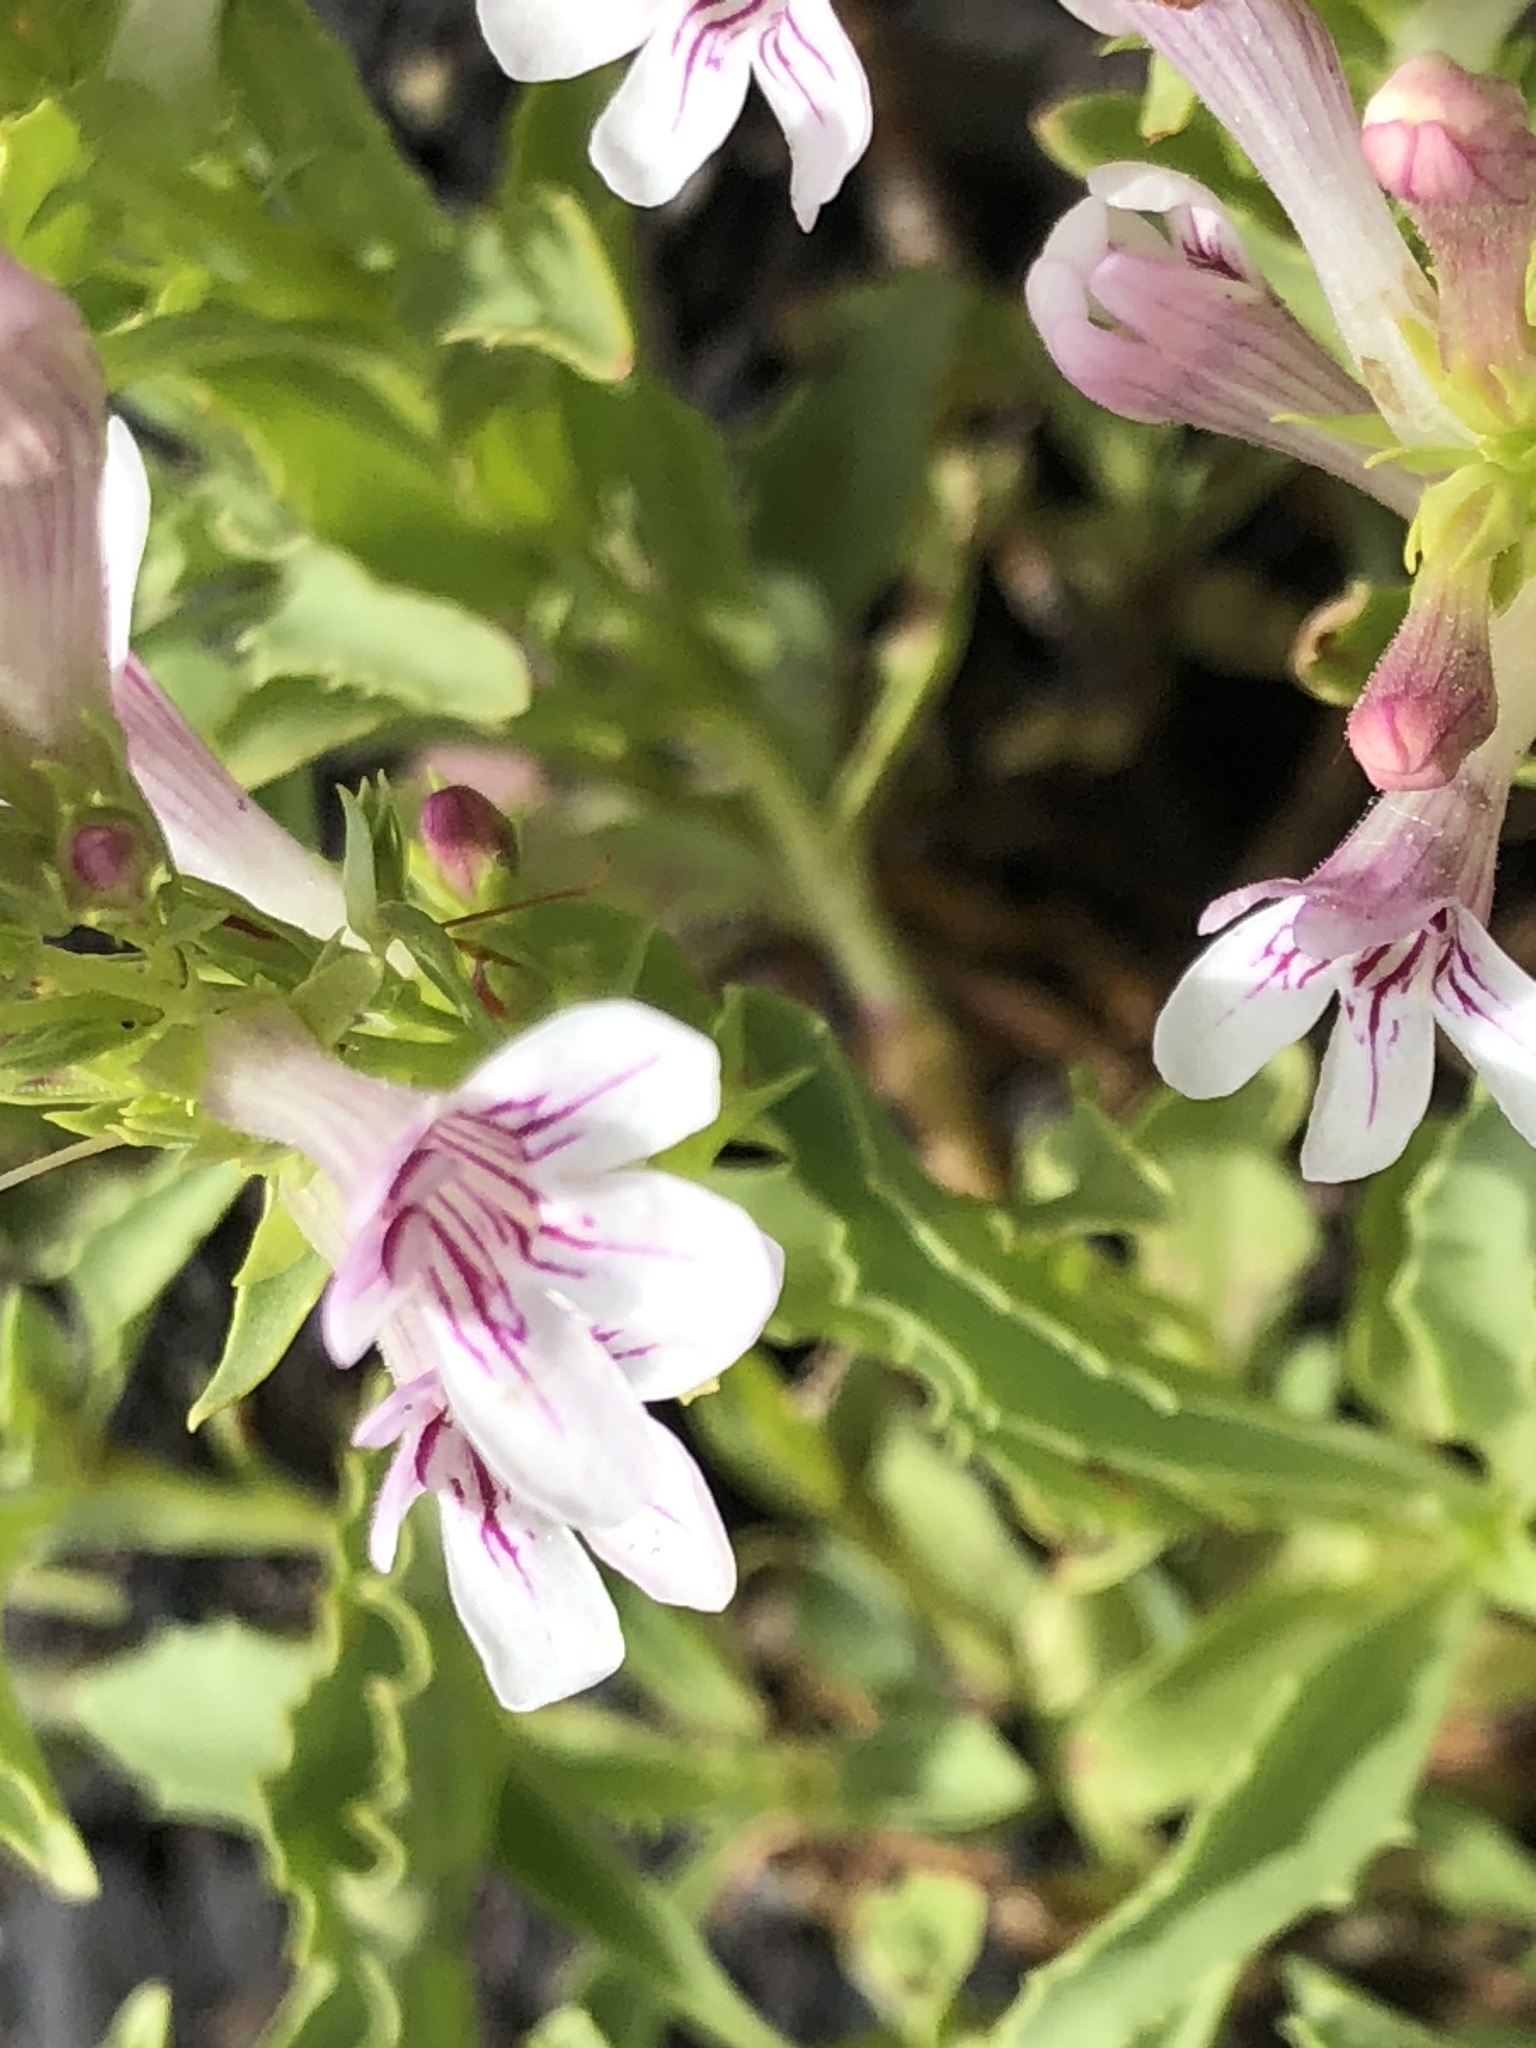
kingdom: Plantae
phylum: Tracheophyta
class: Magnoliopsida
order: Lamiales
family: Plantaginaceae
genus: Penstemon
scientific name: Penstemon deustus
